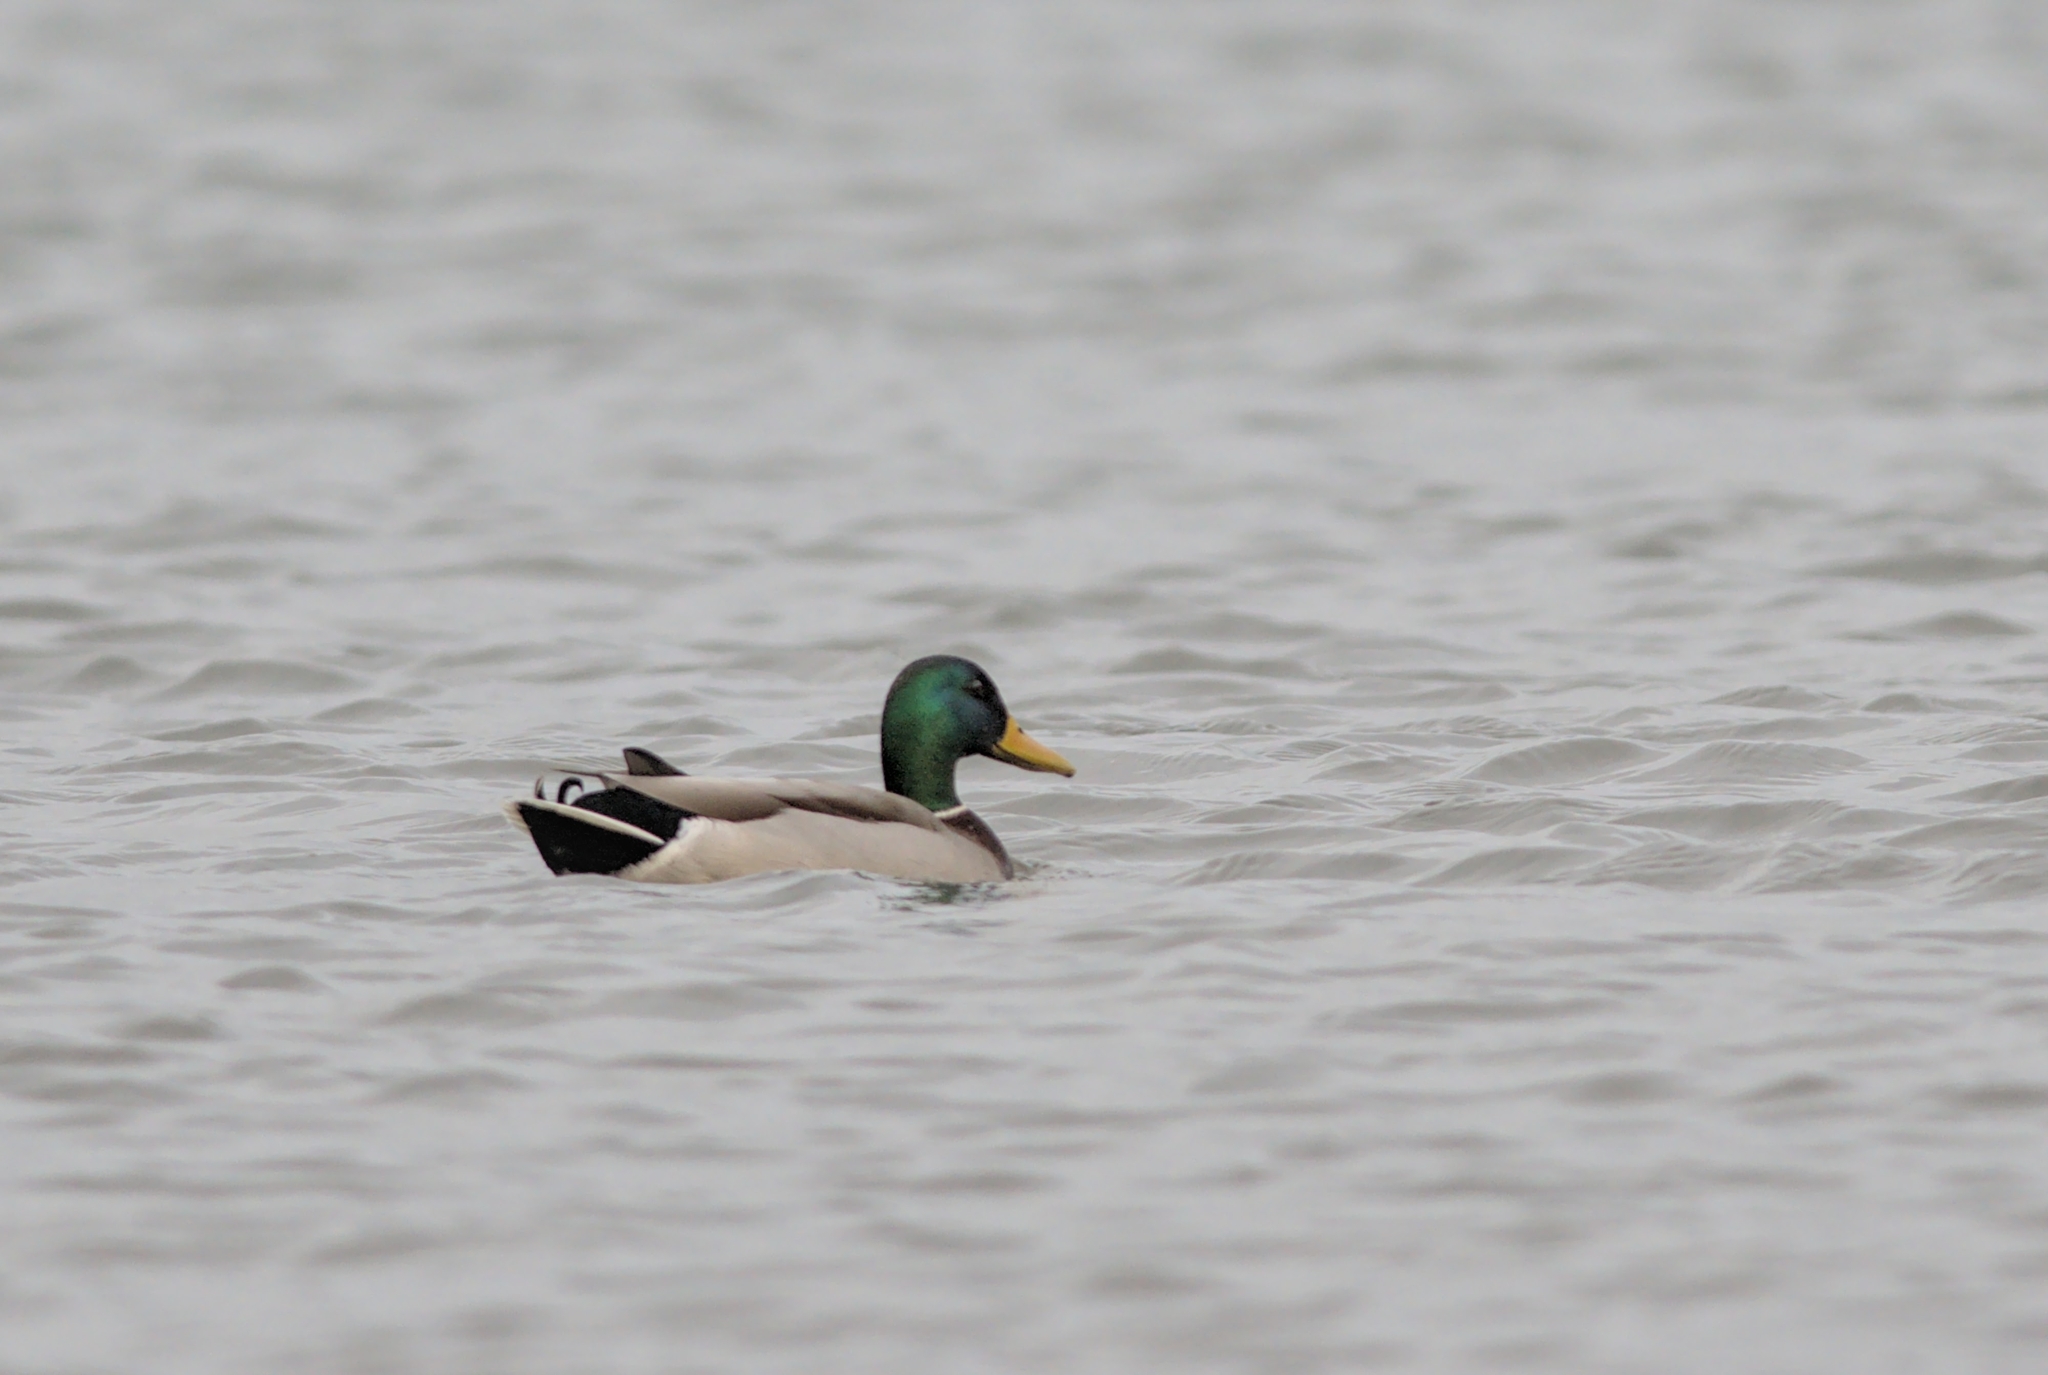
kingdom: Animalia
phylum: Chordata
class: Aves
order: Anseriformes
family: Anatidae
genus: Anas
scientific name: Anas platyrhynchos
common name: Mallard
